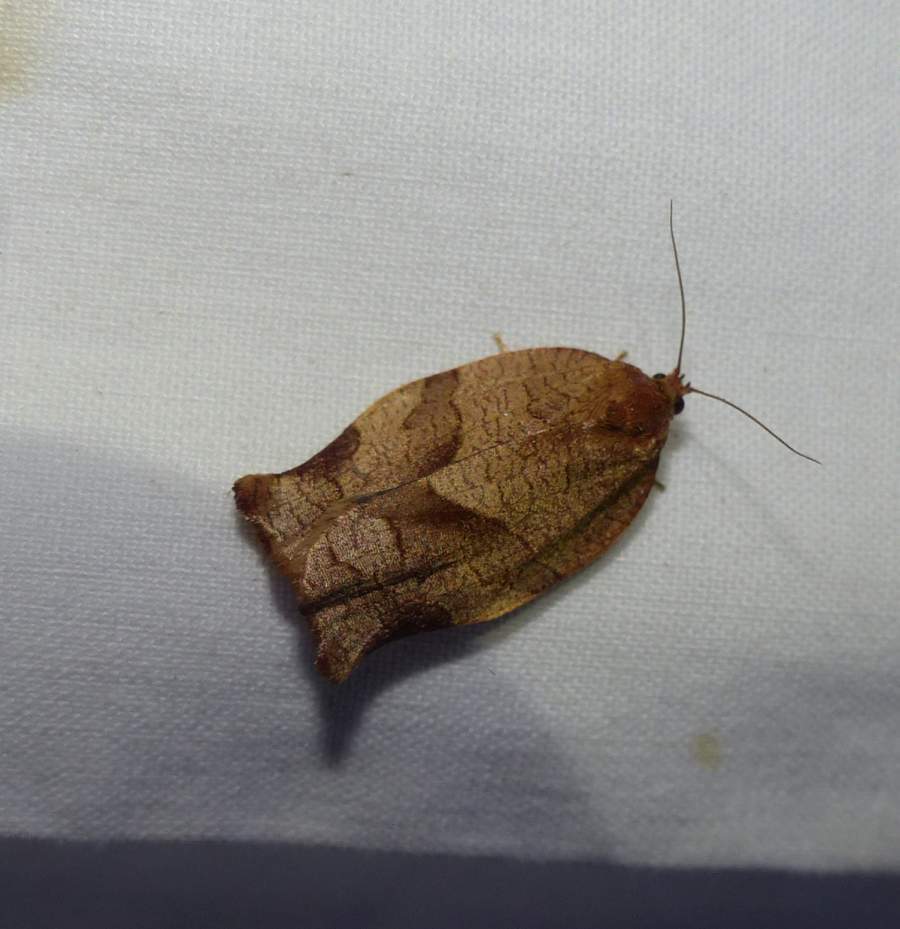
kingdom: Animalia
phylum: Arthropoda
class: Insecta
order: Lepidoptera
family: Tortricidae
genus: Choristoneura
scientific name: Choristoneura rosaceana
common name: Oblique-banded leafroller moth
